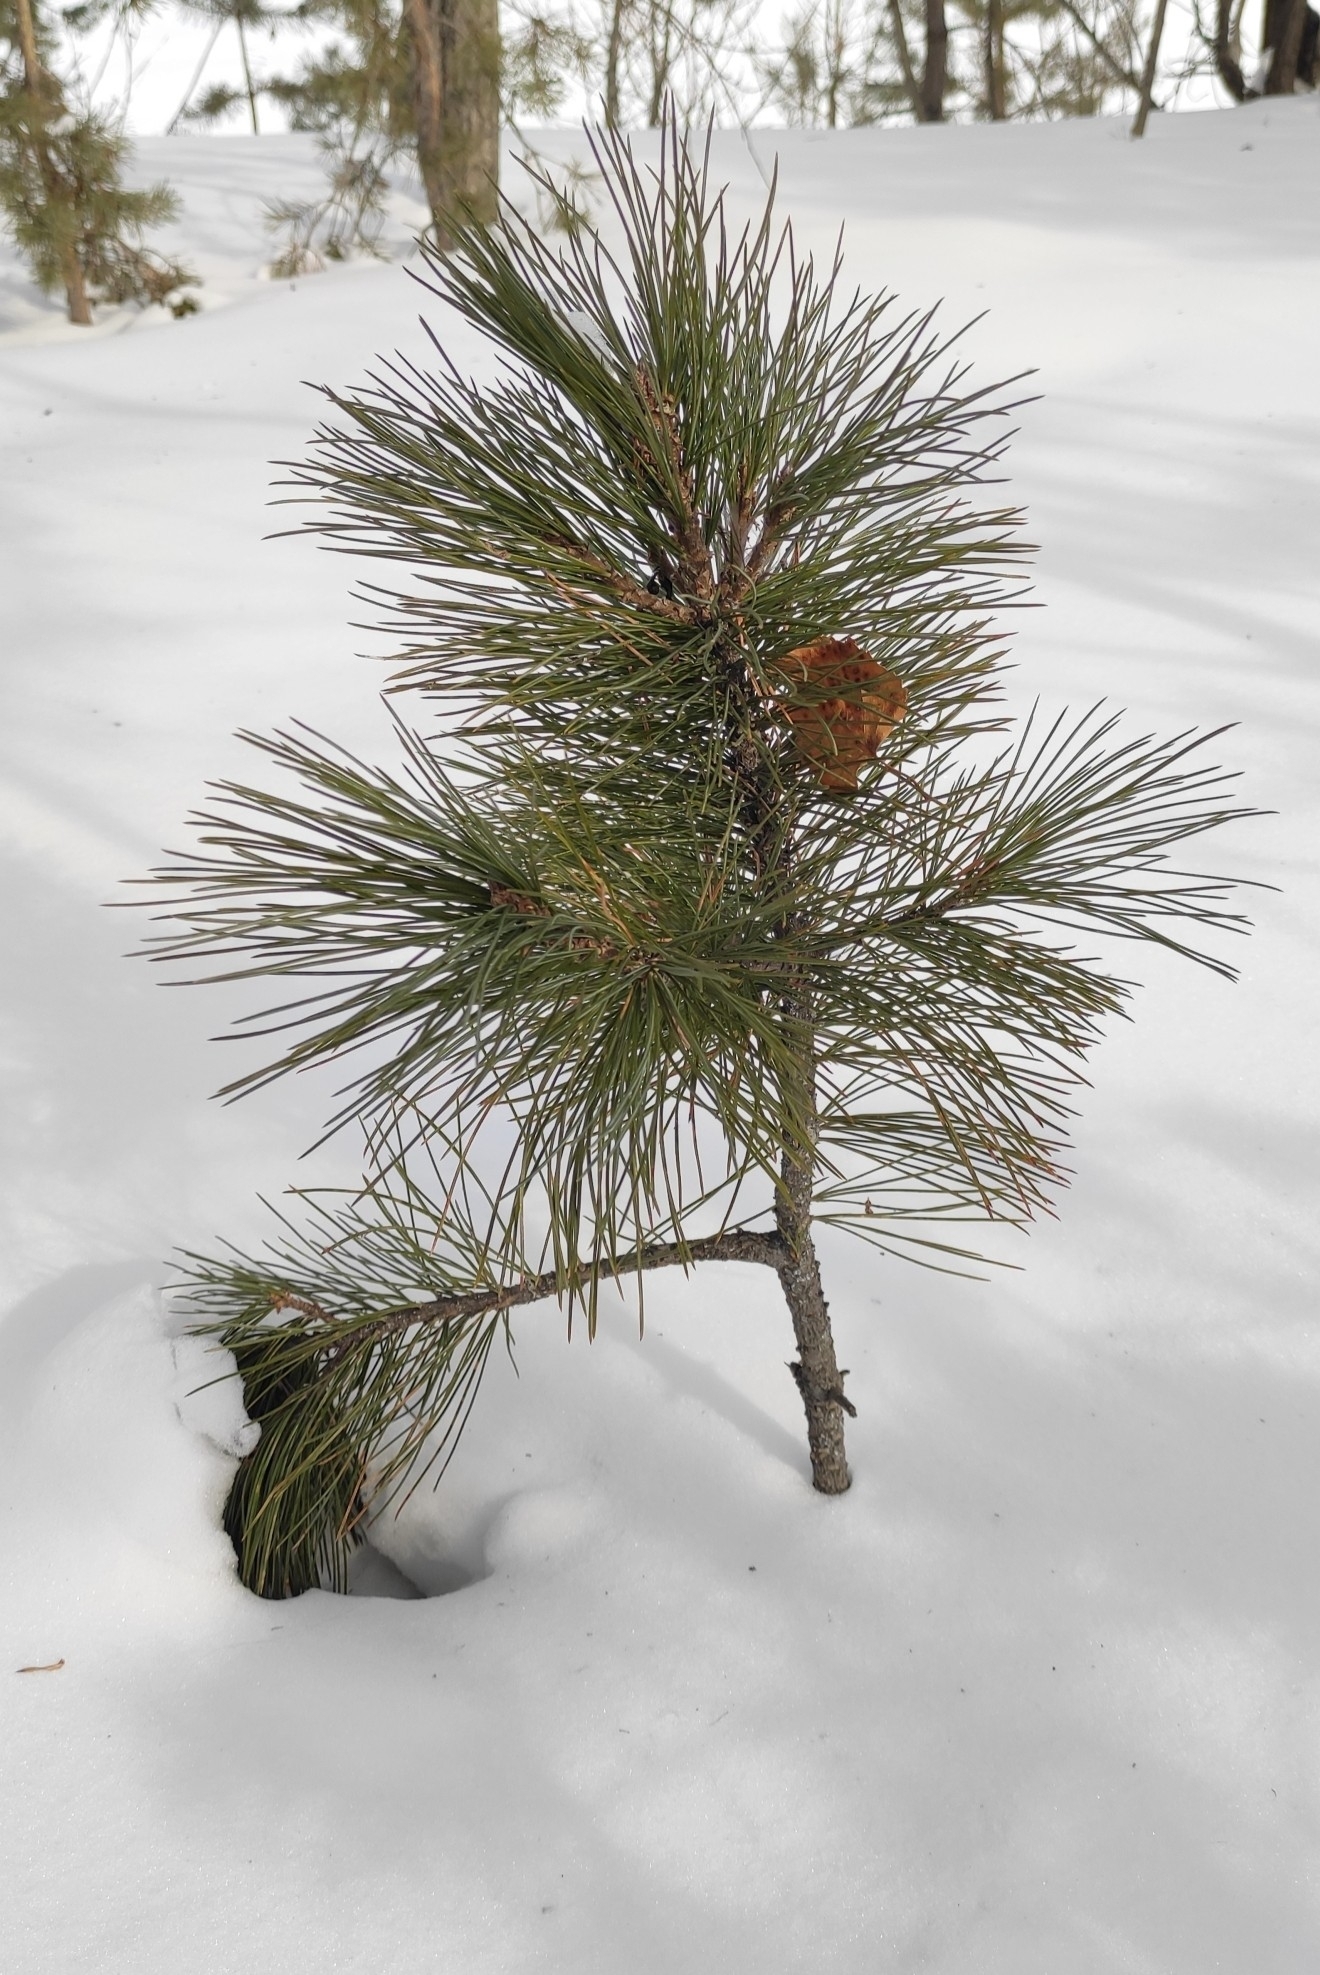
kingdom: Plantae
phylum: Tracheophyta
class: Pinopsida
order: Pinales
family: Pinaceae
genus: Pinus
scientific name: Pinus sibirica
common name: Siberian pine
